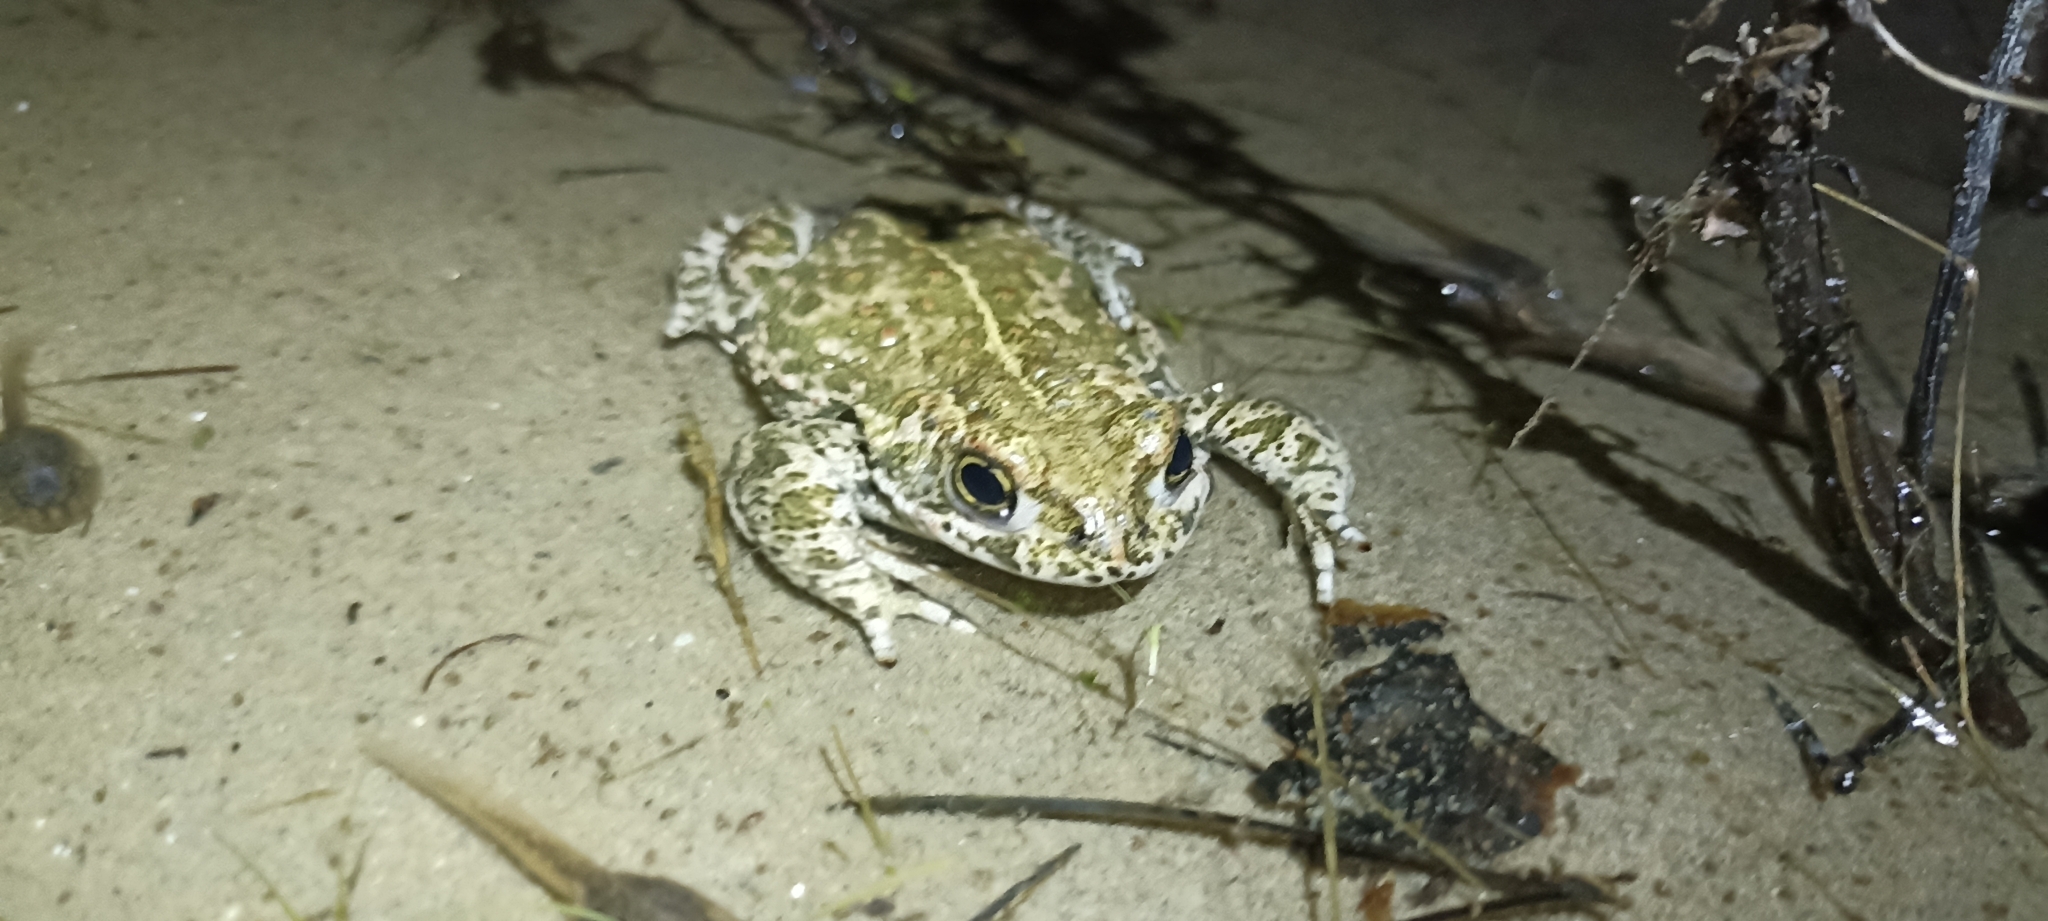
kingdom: Animalia
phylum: Chordata
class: Amphibia
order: Anura
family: Bufonidae
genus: Epidalea
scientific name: Epidalea calamita
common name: Natterjack toad
